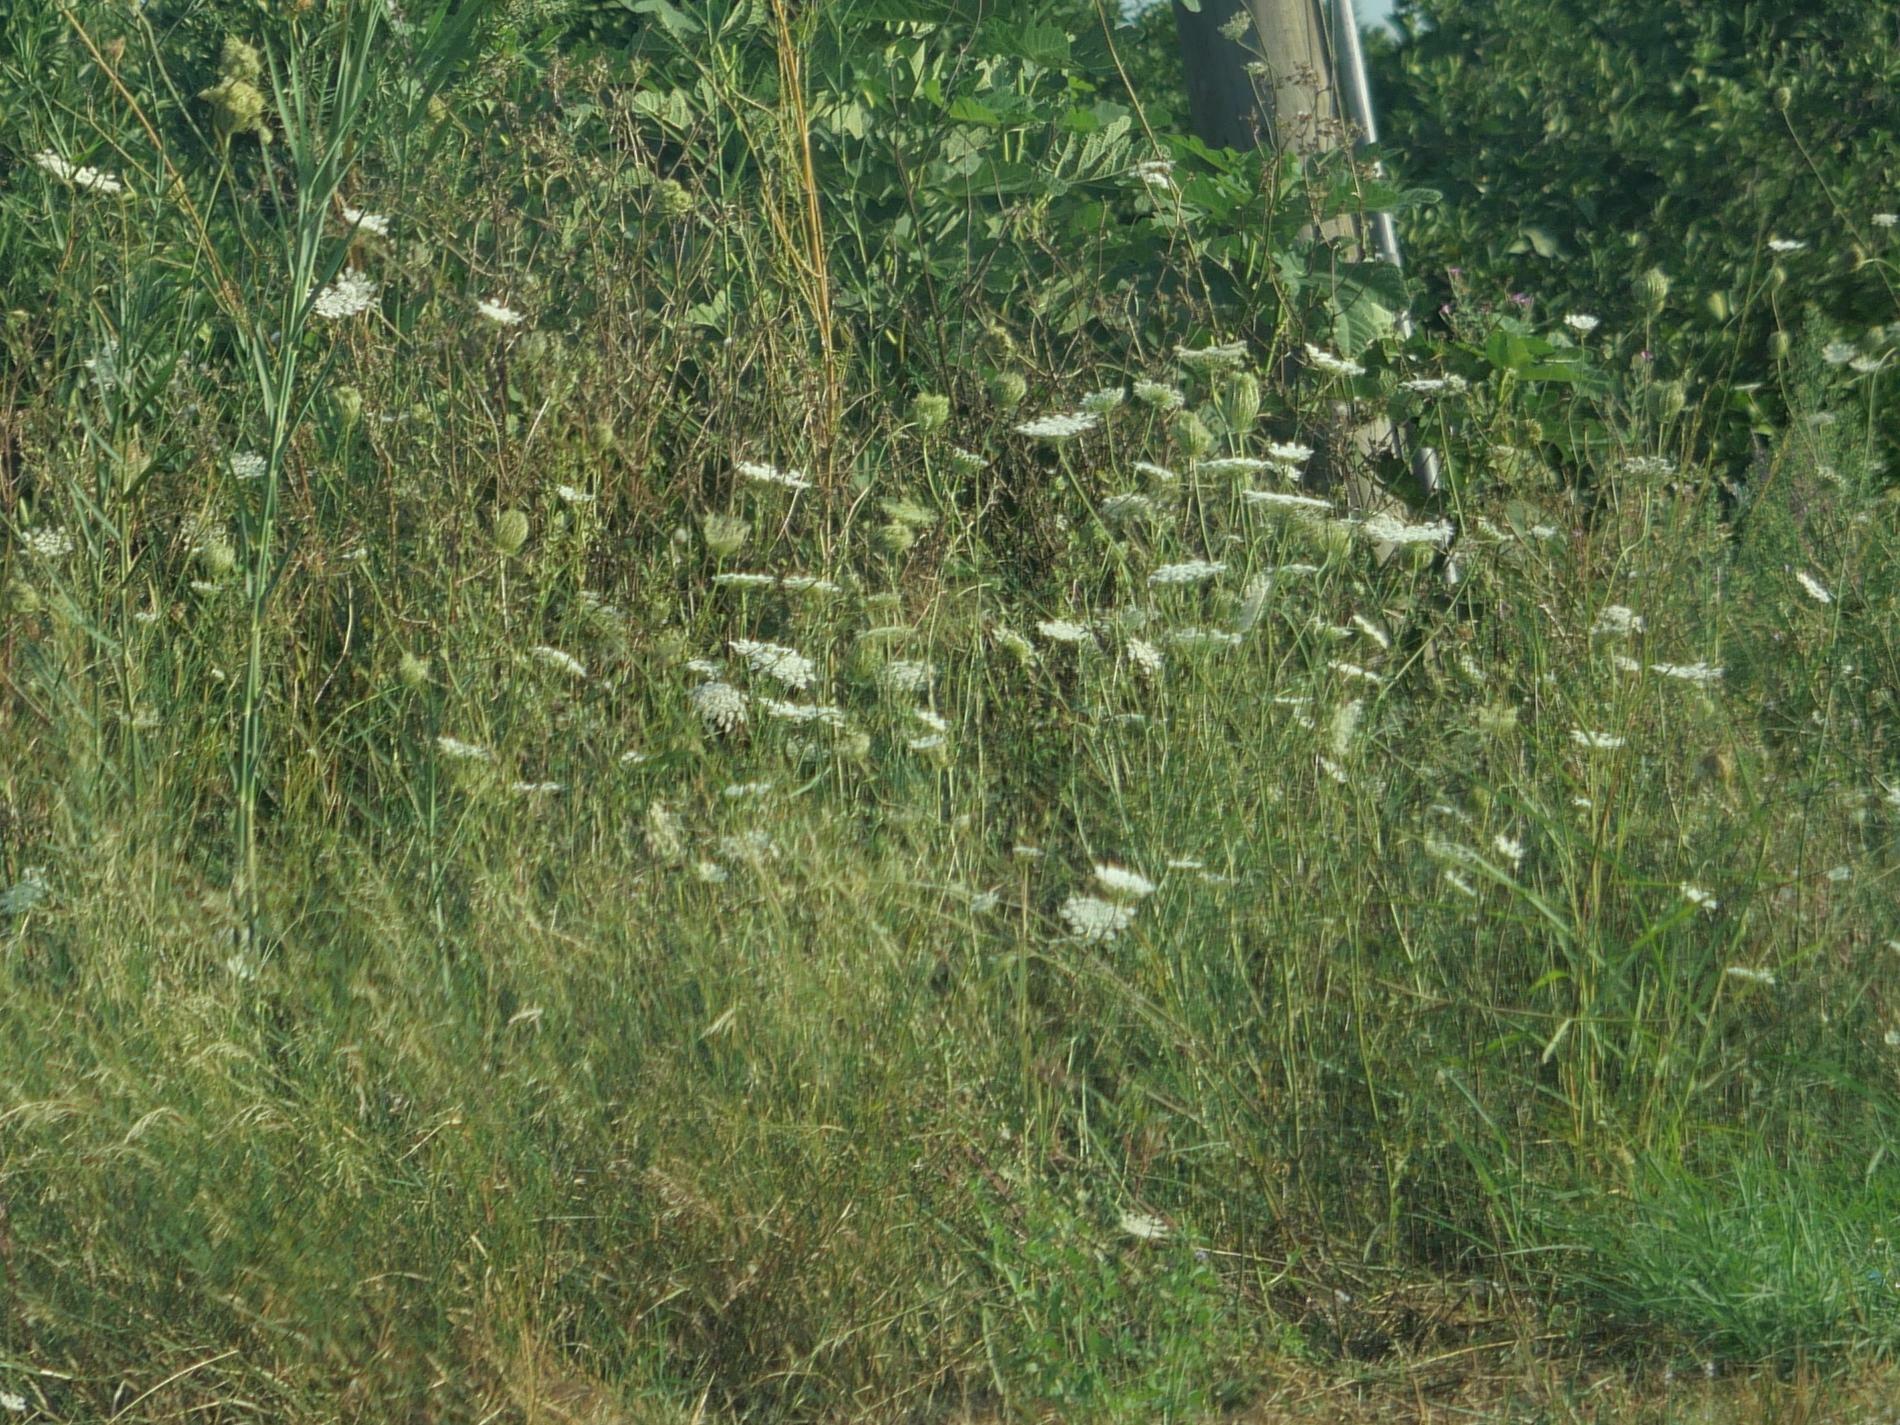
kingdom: Plantae
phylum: Tracheophyta
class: Magnoliopsida
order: Apiales
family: Apiaceae
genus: Daucus
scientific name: Daucus carota
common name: Wild carrot
